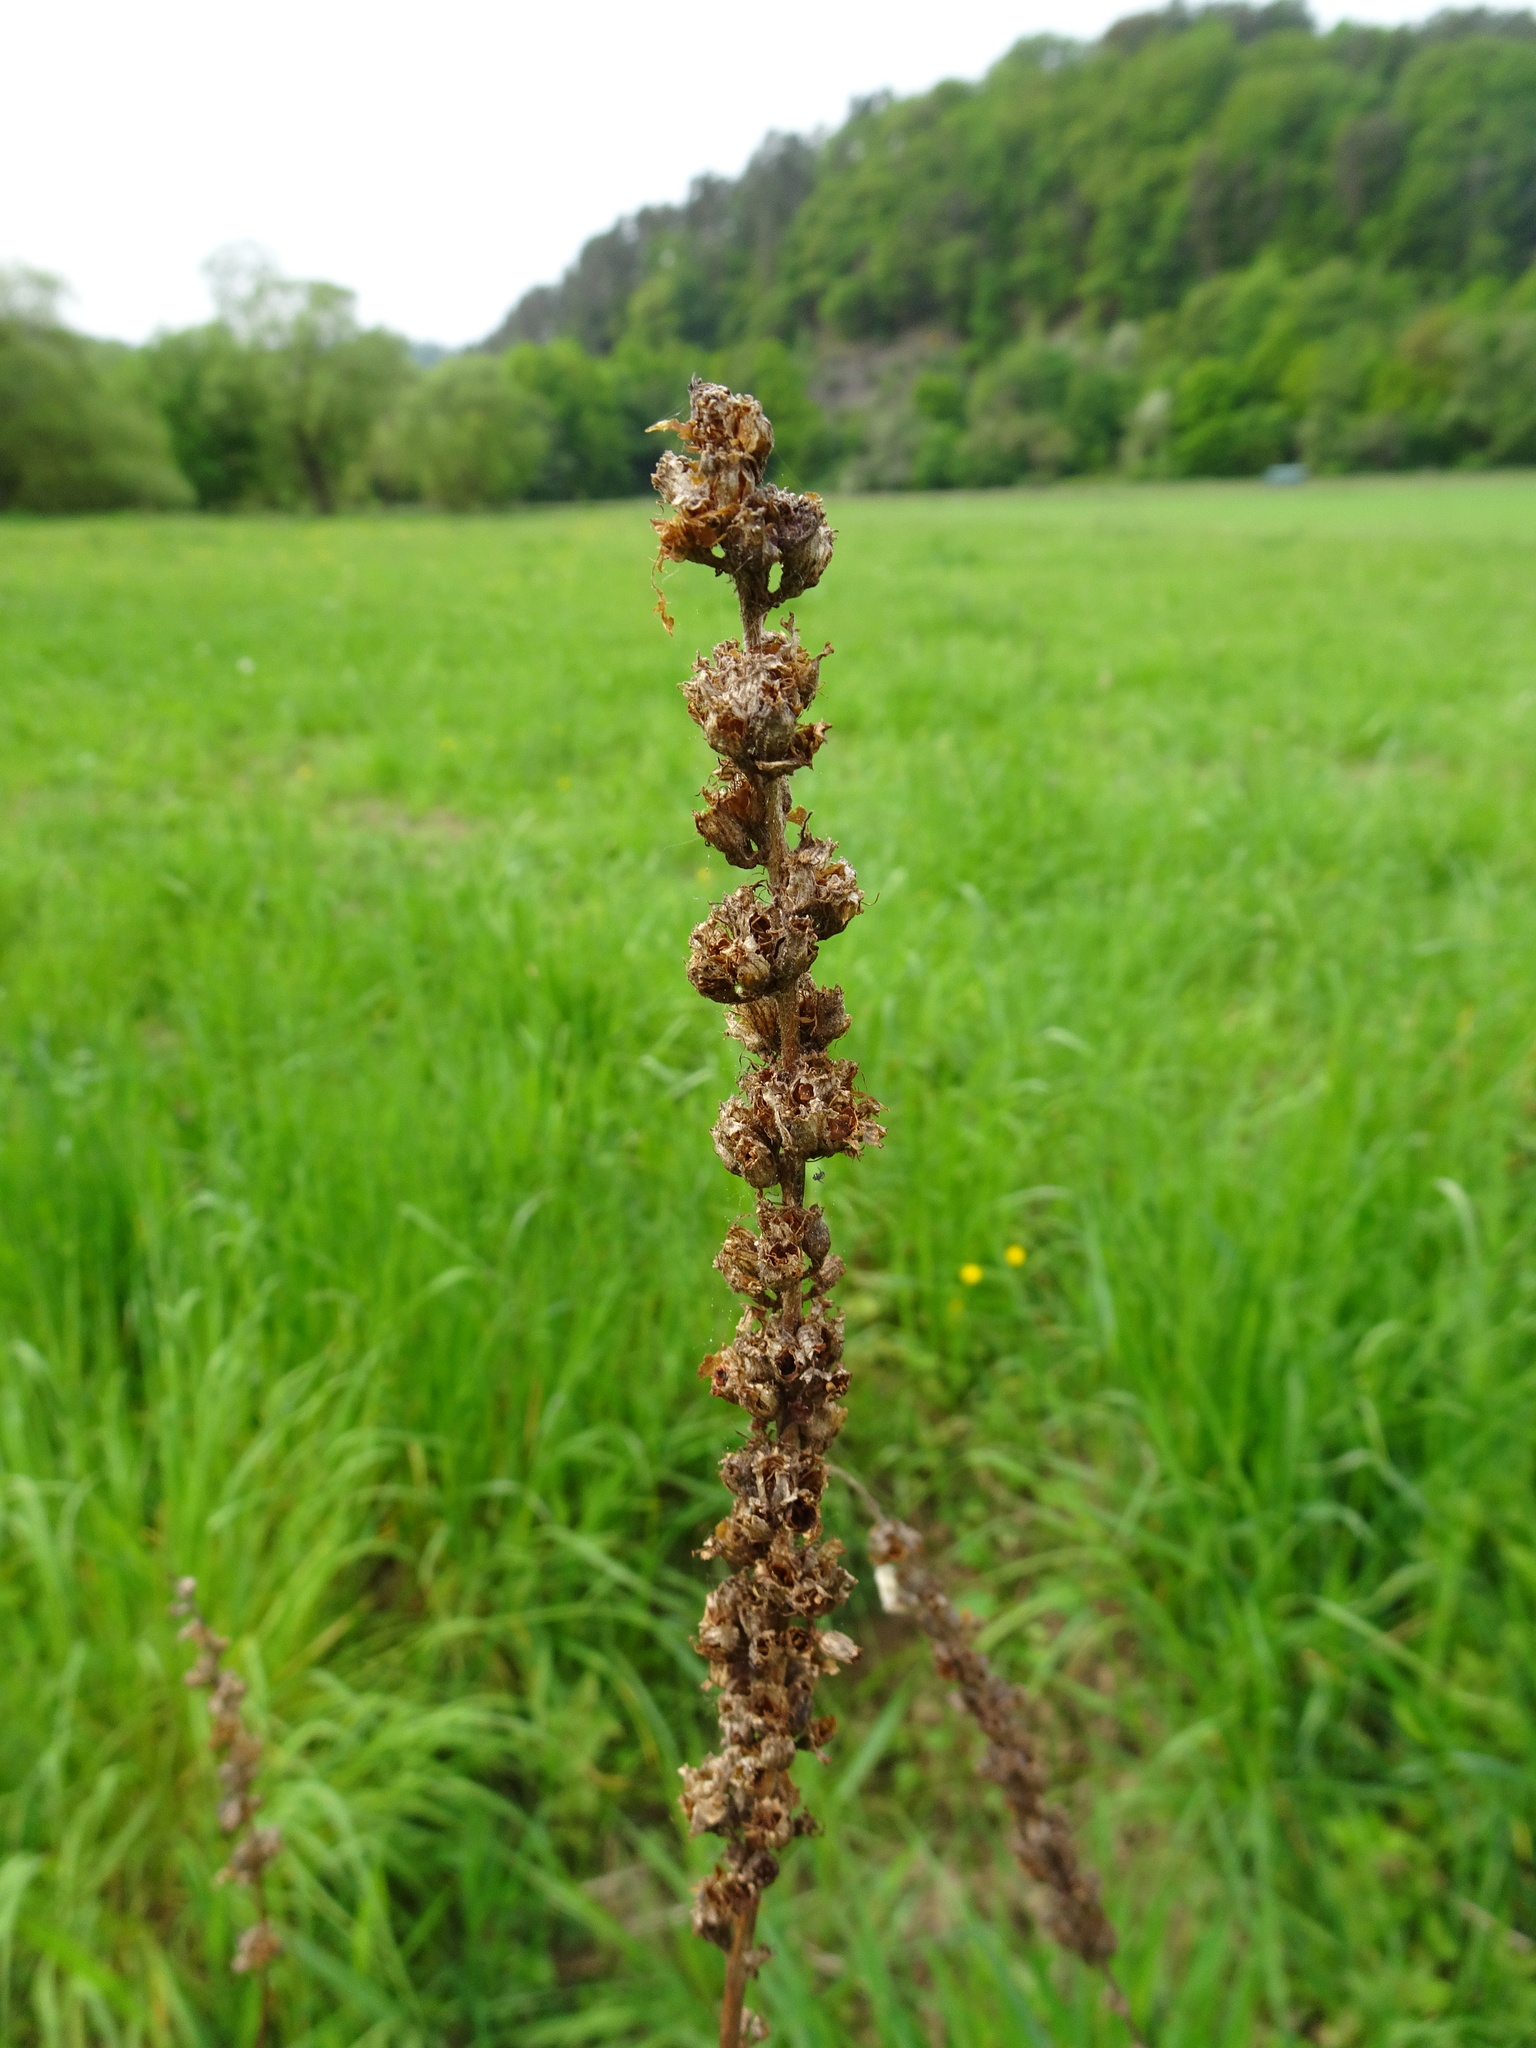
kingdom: Plantae
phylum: Tracheophyta
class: Magnoliopsida
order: Myrtales
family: Lythraceae
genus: Lythrum
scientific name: Lythrum salicaria
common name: Purple loosestrife
